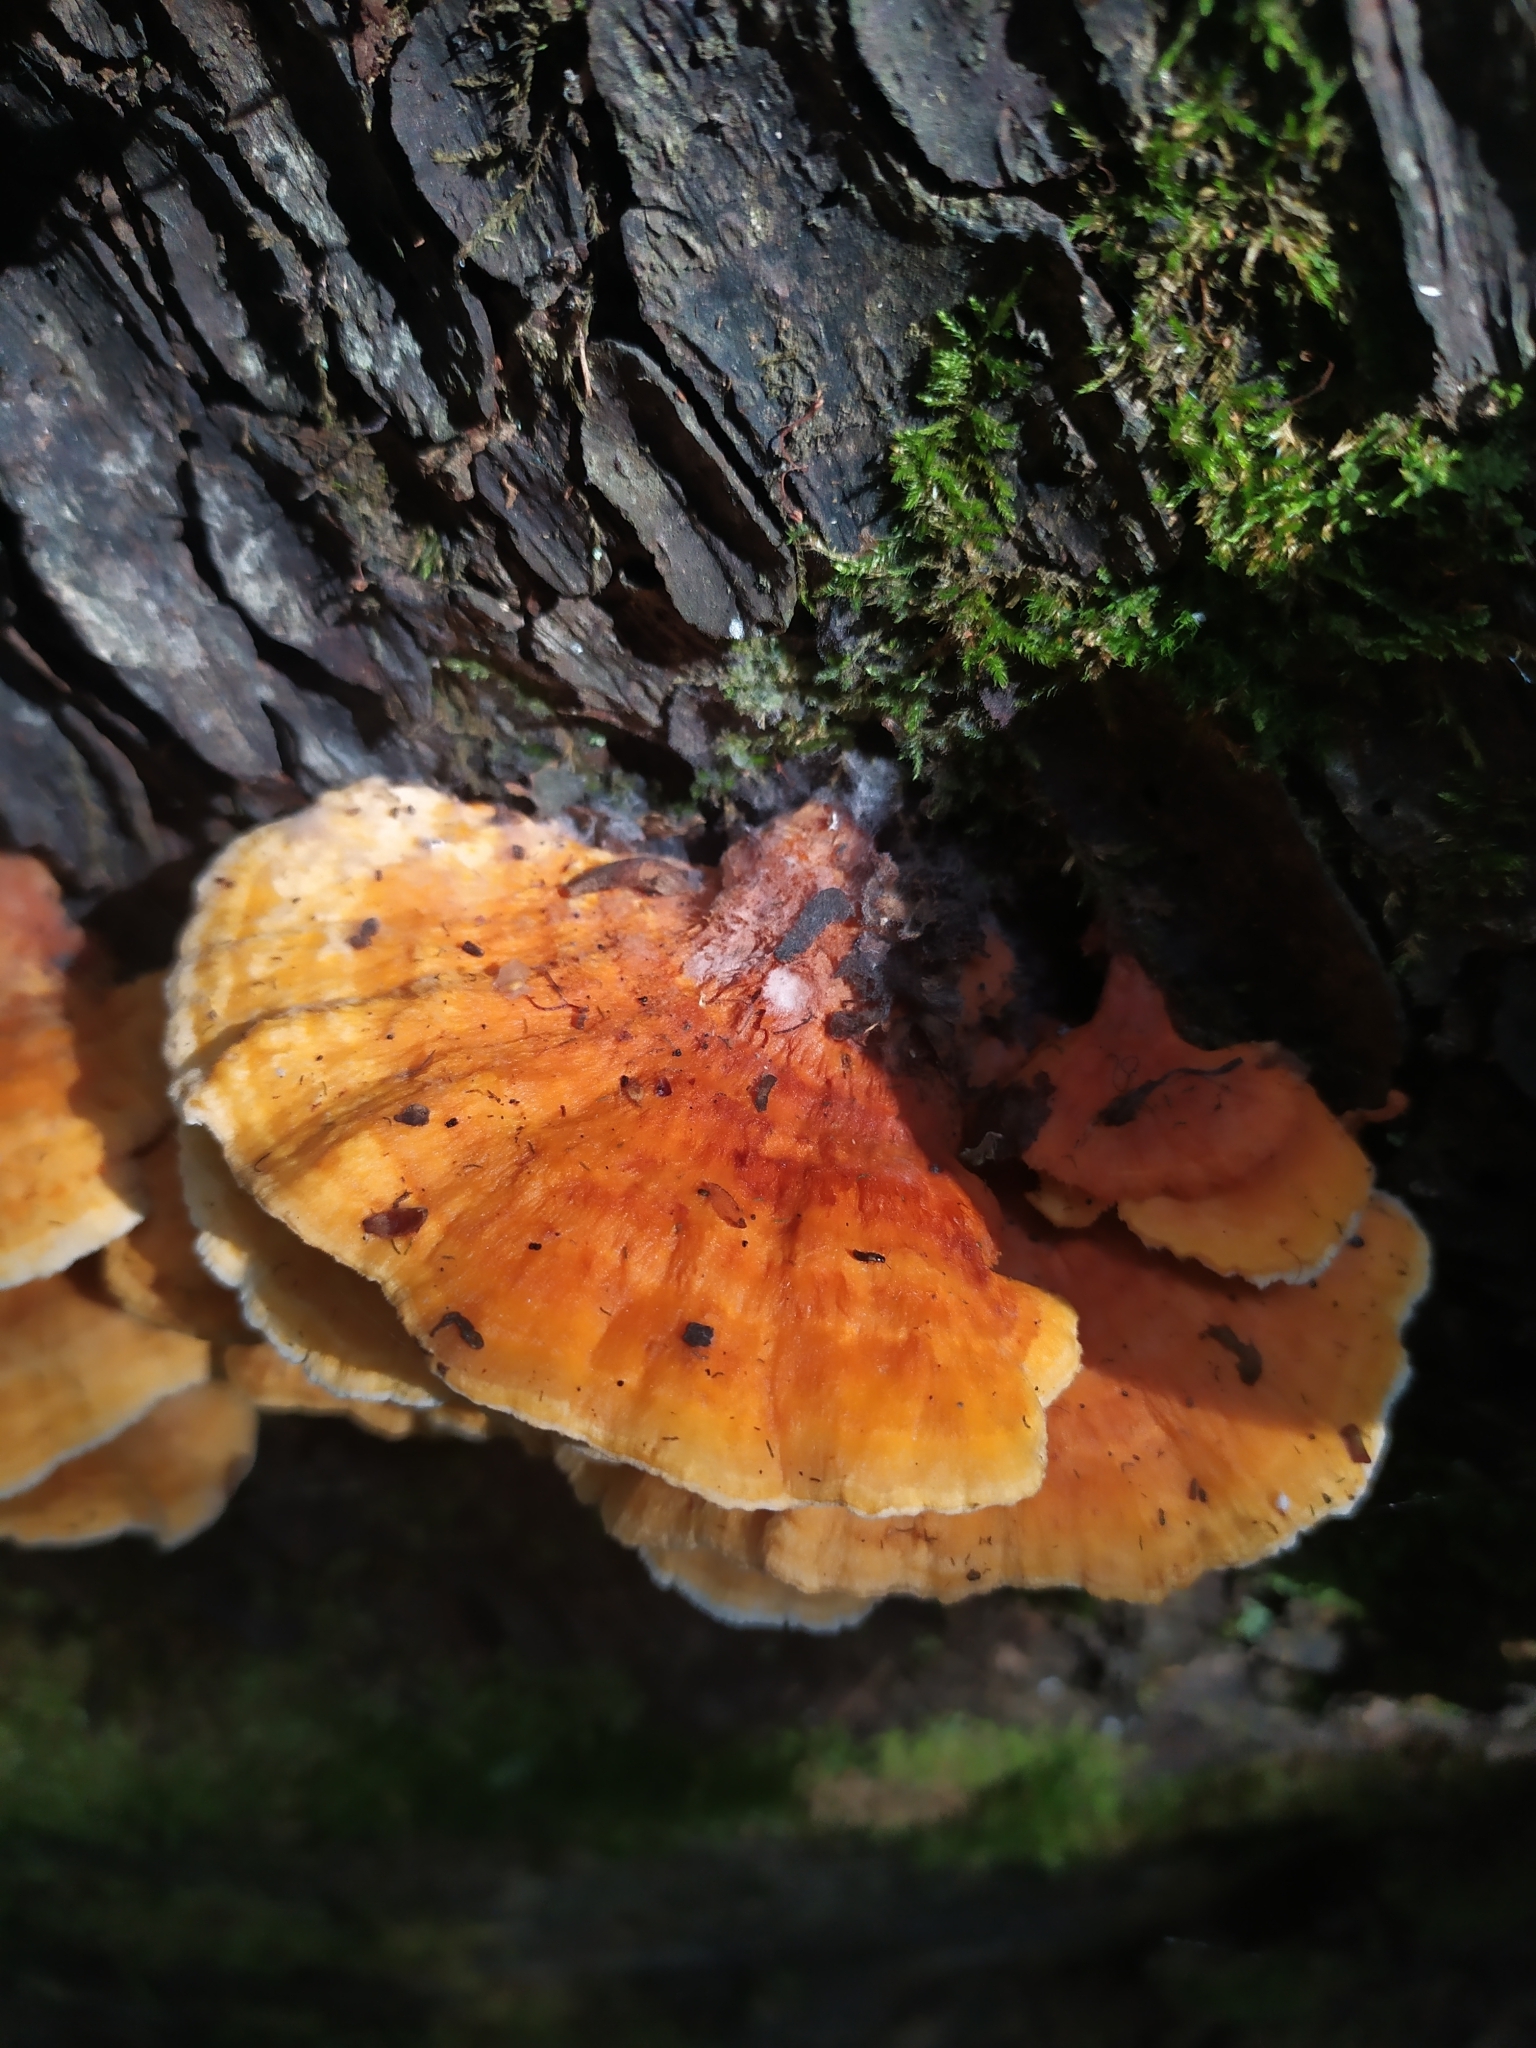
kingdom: Fungi
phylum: Basidiomycota
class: Agaricomycetes
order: Polyporales
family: Pycnoporellaceae
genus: Pycnoporellus
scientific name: Pycnoporellus fulgens
